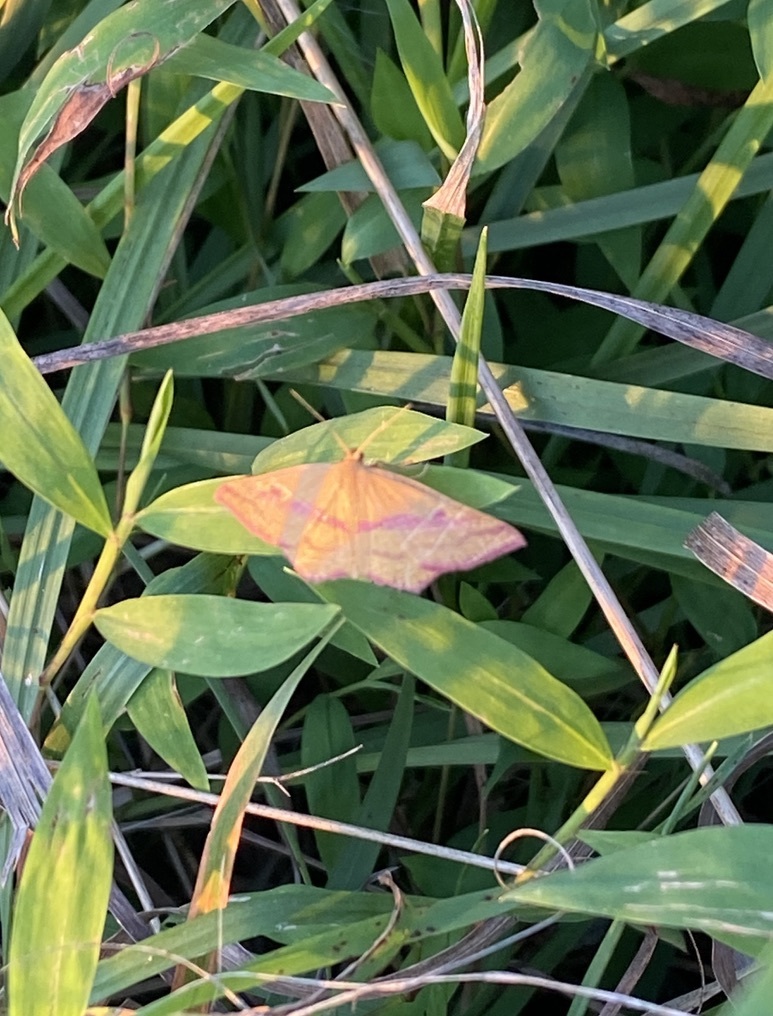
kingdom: Animalia
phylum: Arthropoda
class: Insecta
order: Lepidoptera
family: Geometridae
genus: Haematopis
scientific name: Haematopis grataria
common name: Chickweed geometer
